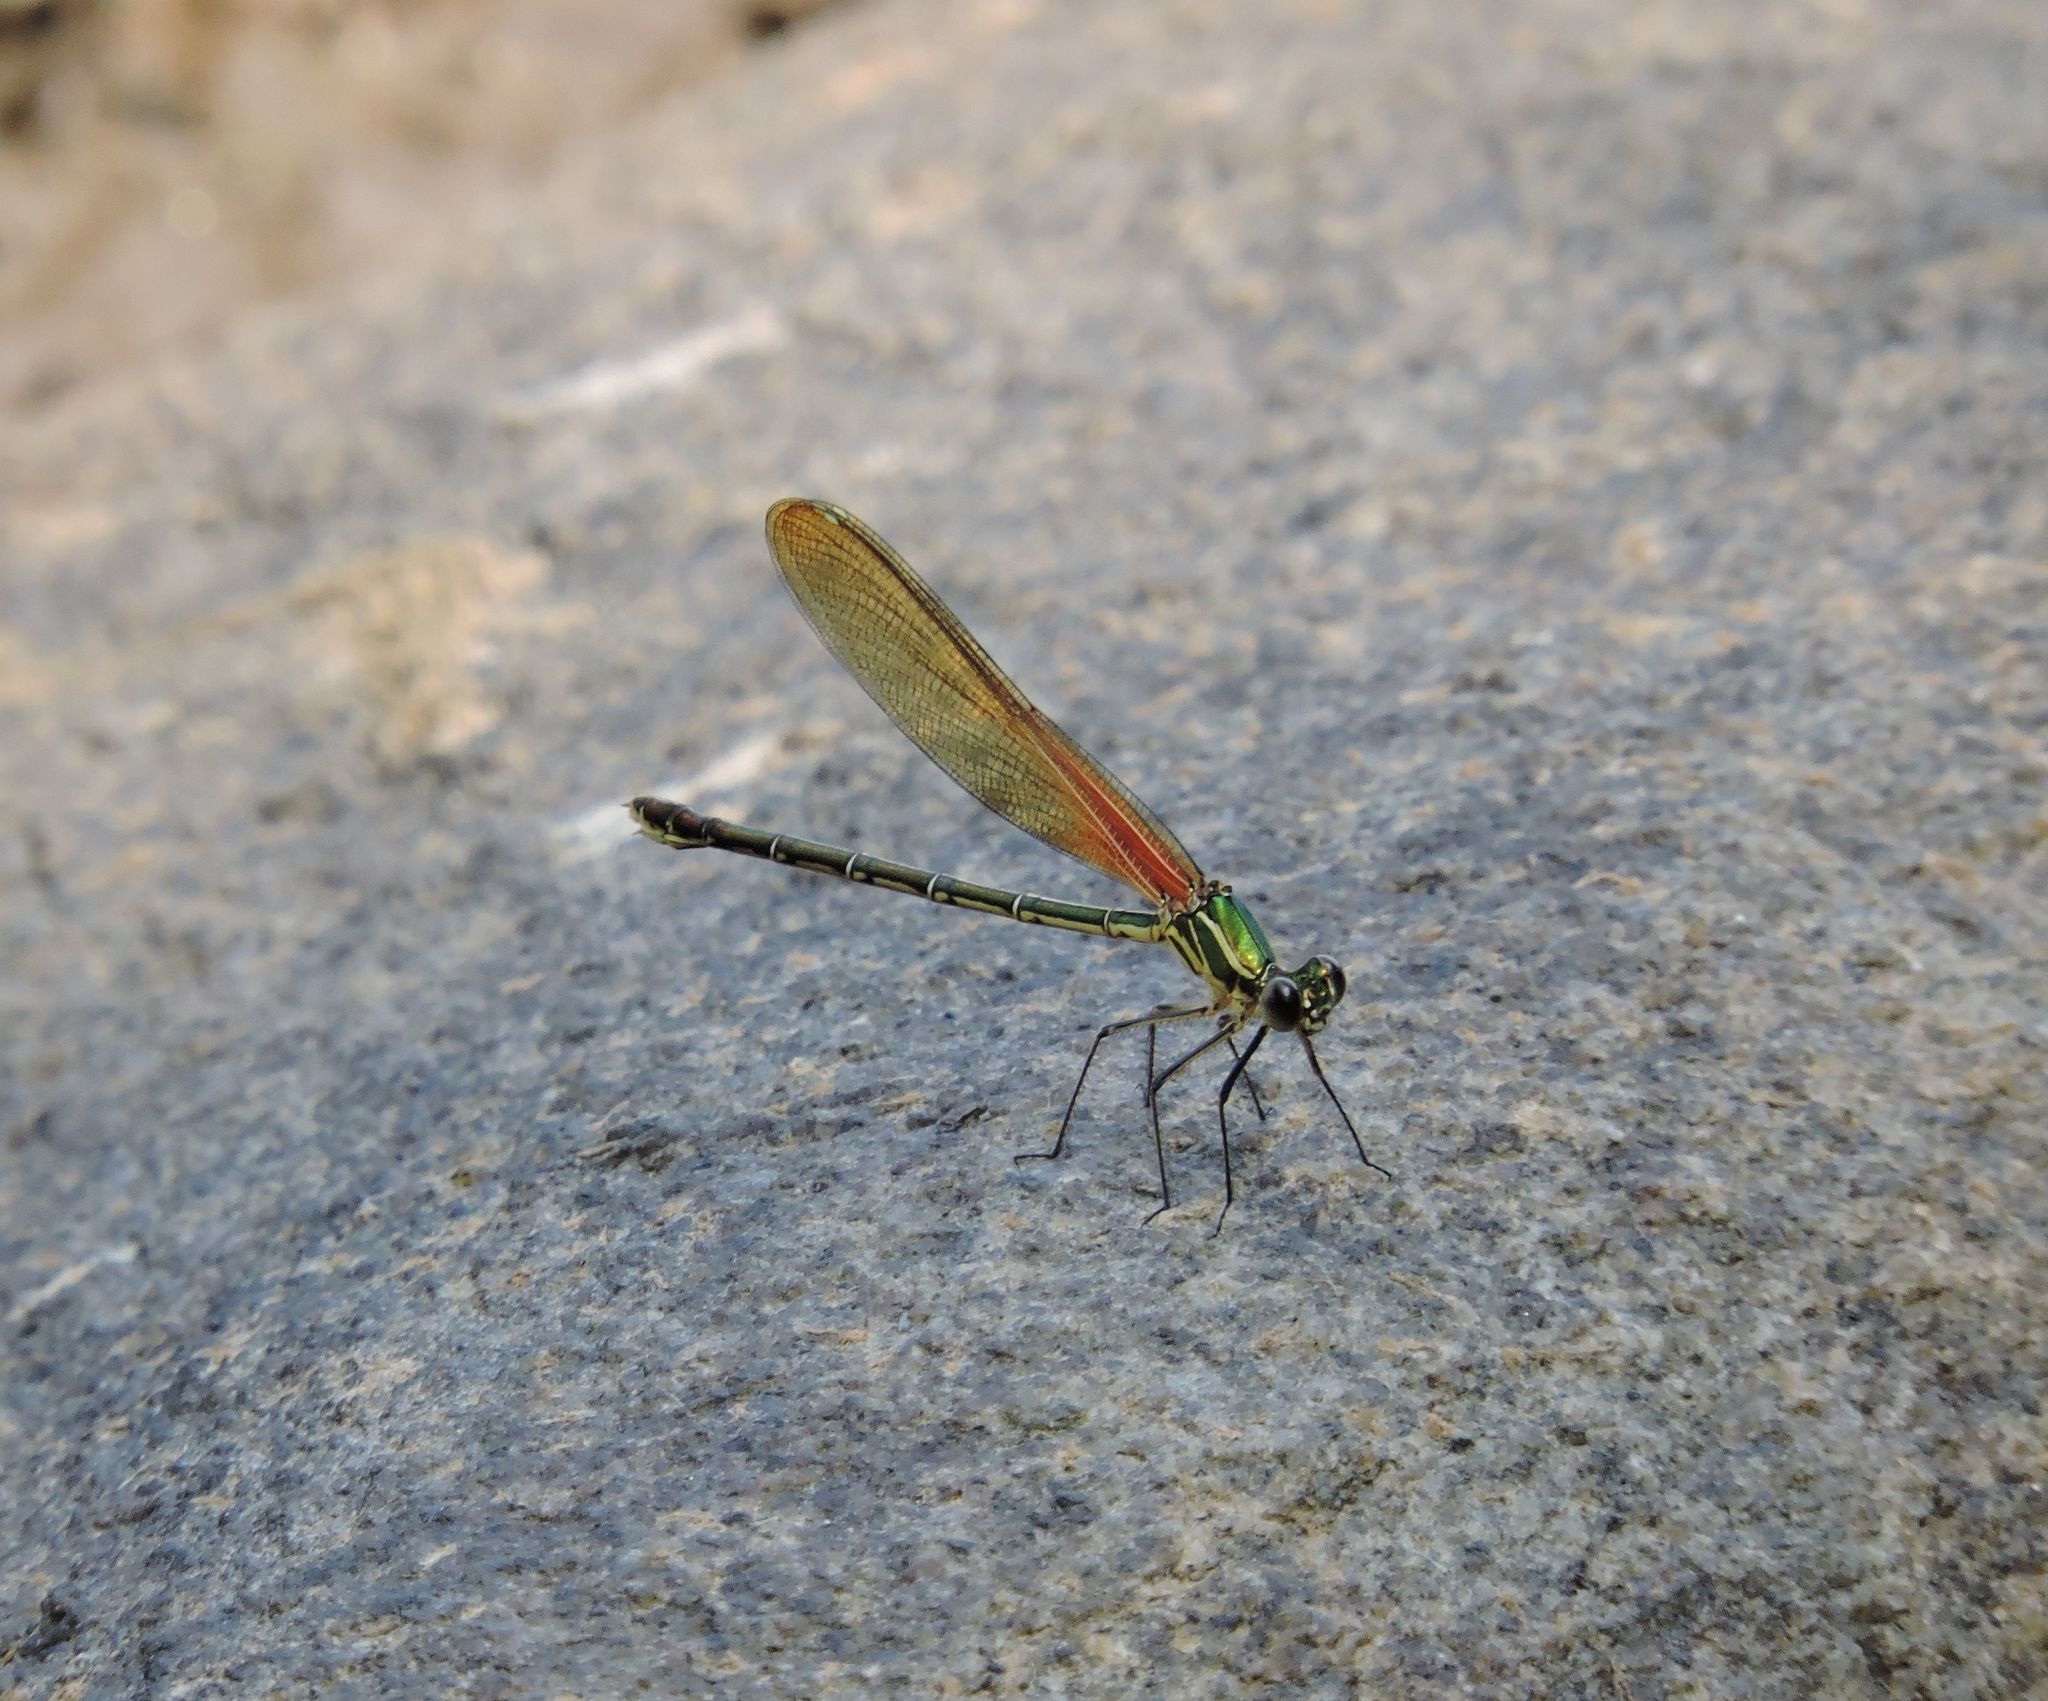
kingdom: Animalia
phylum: Arthropoda
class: Insecta
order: Odonata
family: Calopterygidae
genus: Hetaerina
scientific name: Hetaerina americana
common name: American rubyspot
